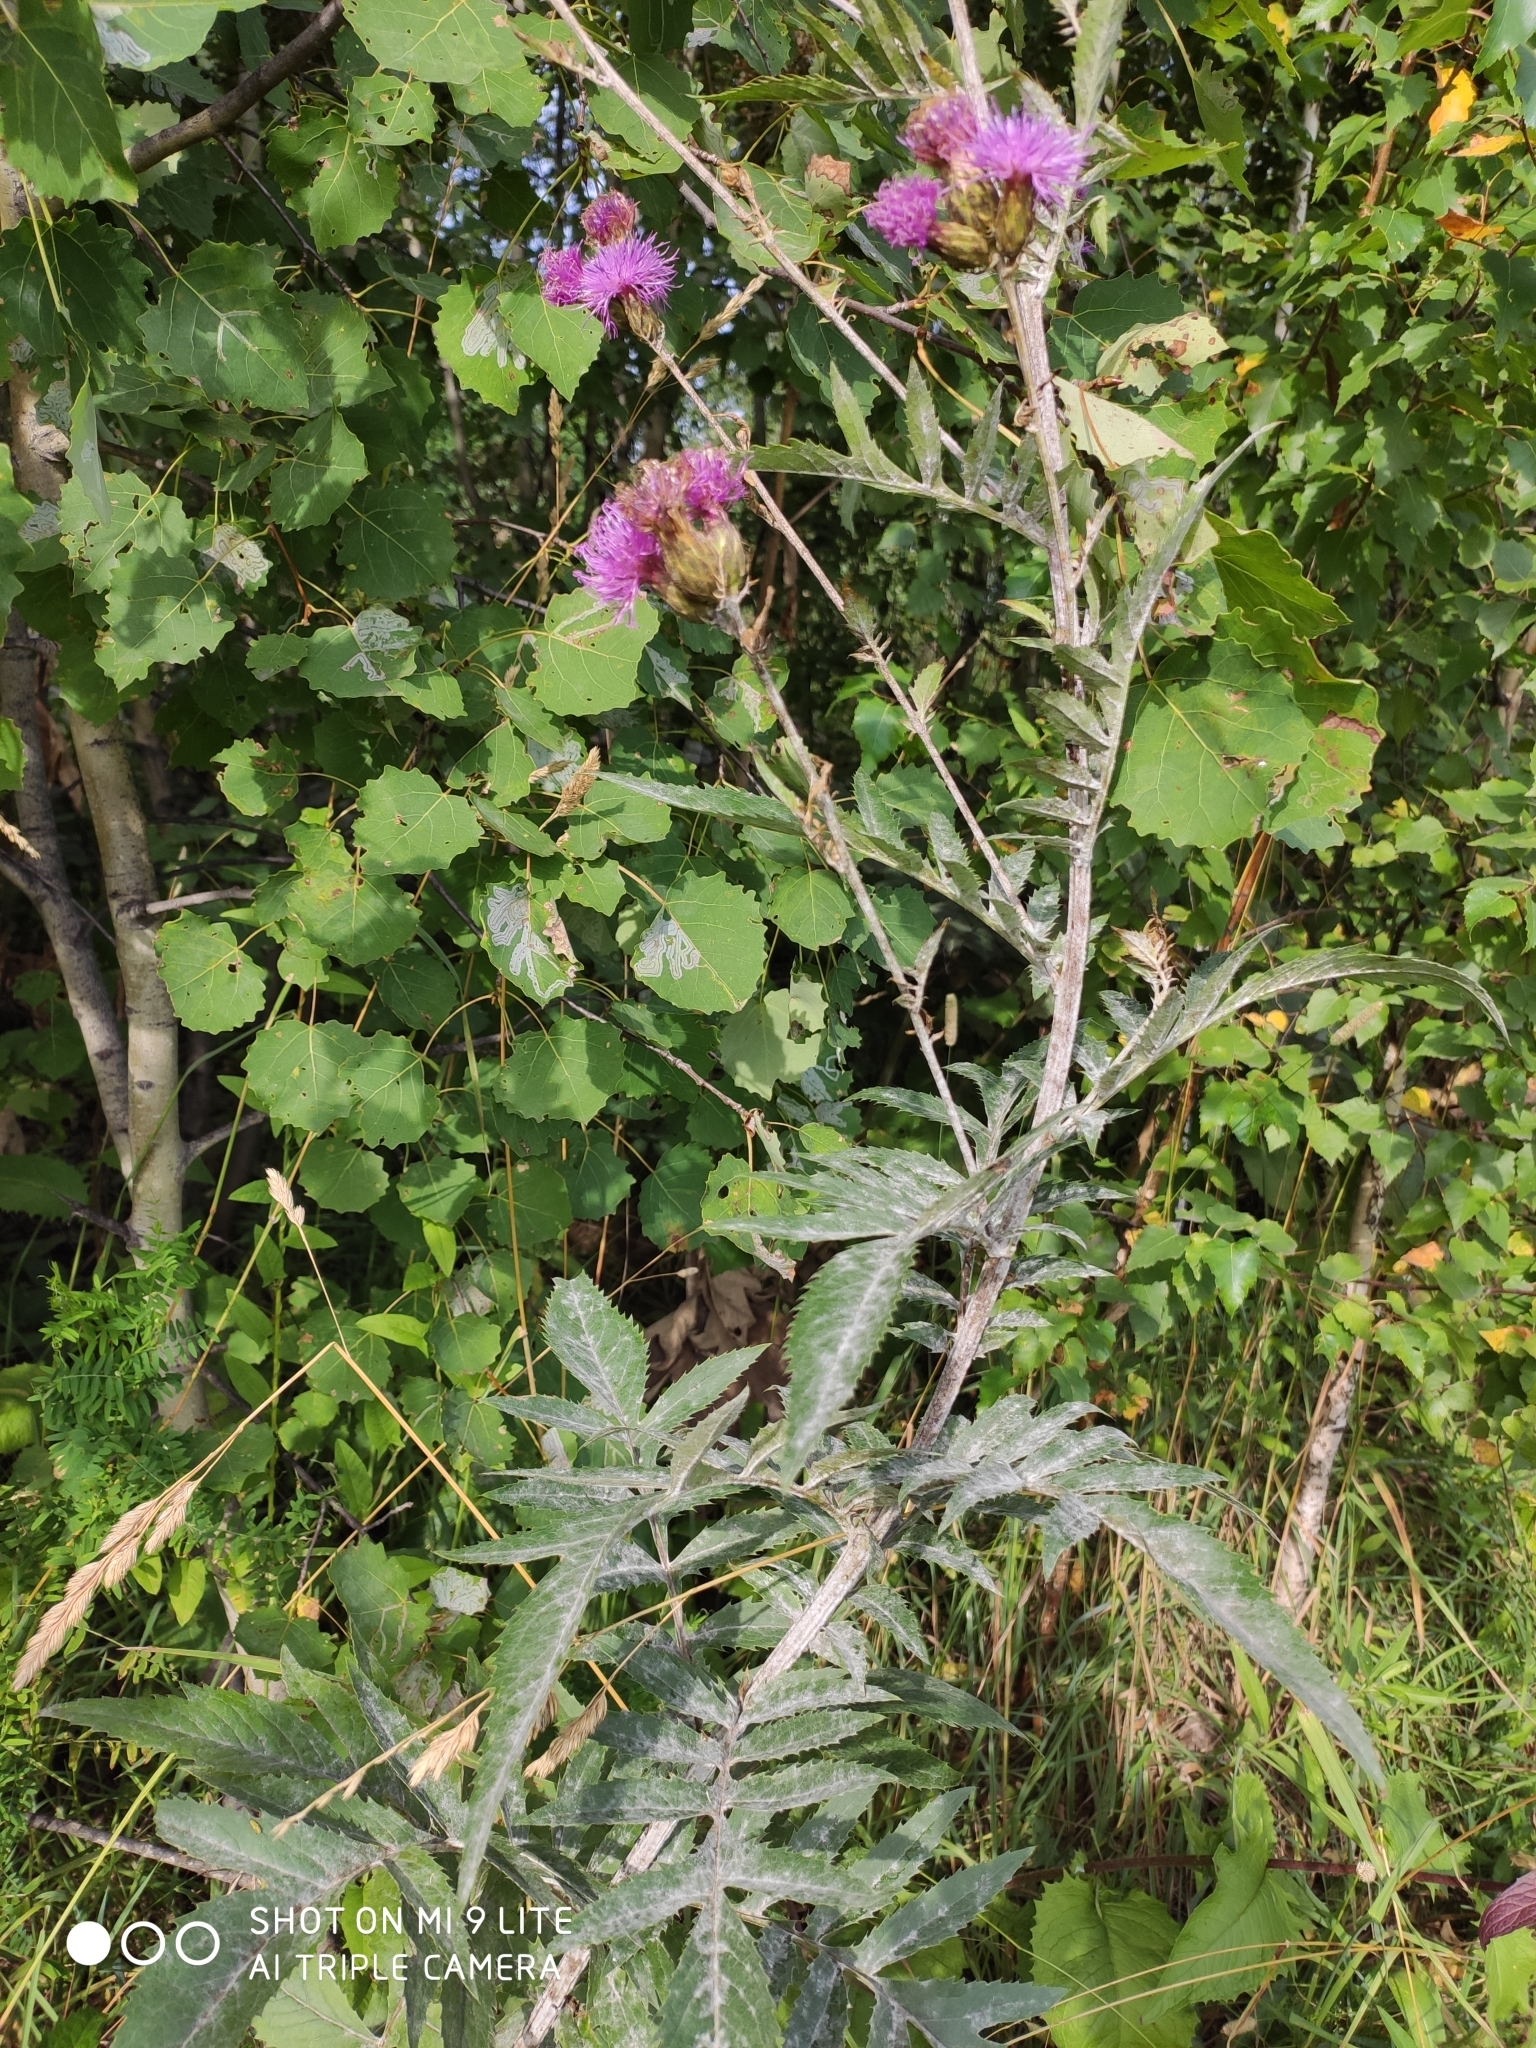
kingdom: Plantae
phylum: Tracheophyta
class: Magnoliopsida
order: Asterales
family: Asteraceae
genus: Serratula
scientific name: Serratula coronata
